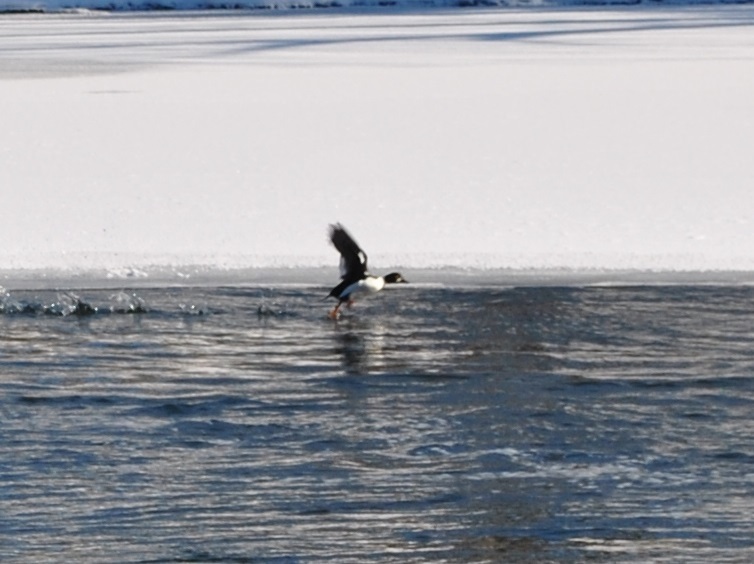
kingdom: Animalia
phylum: Chordata
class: Aves
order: Anseriformes
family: Anatidae
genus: Bucephala
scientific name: Bucephala clangula
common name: Common goldeneye
